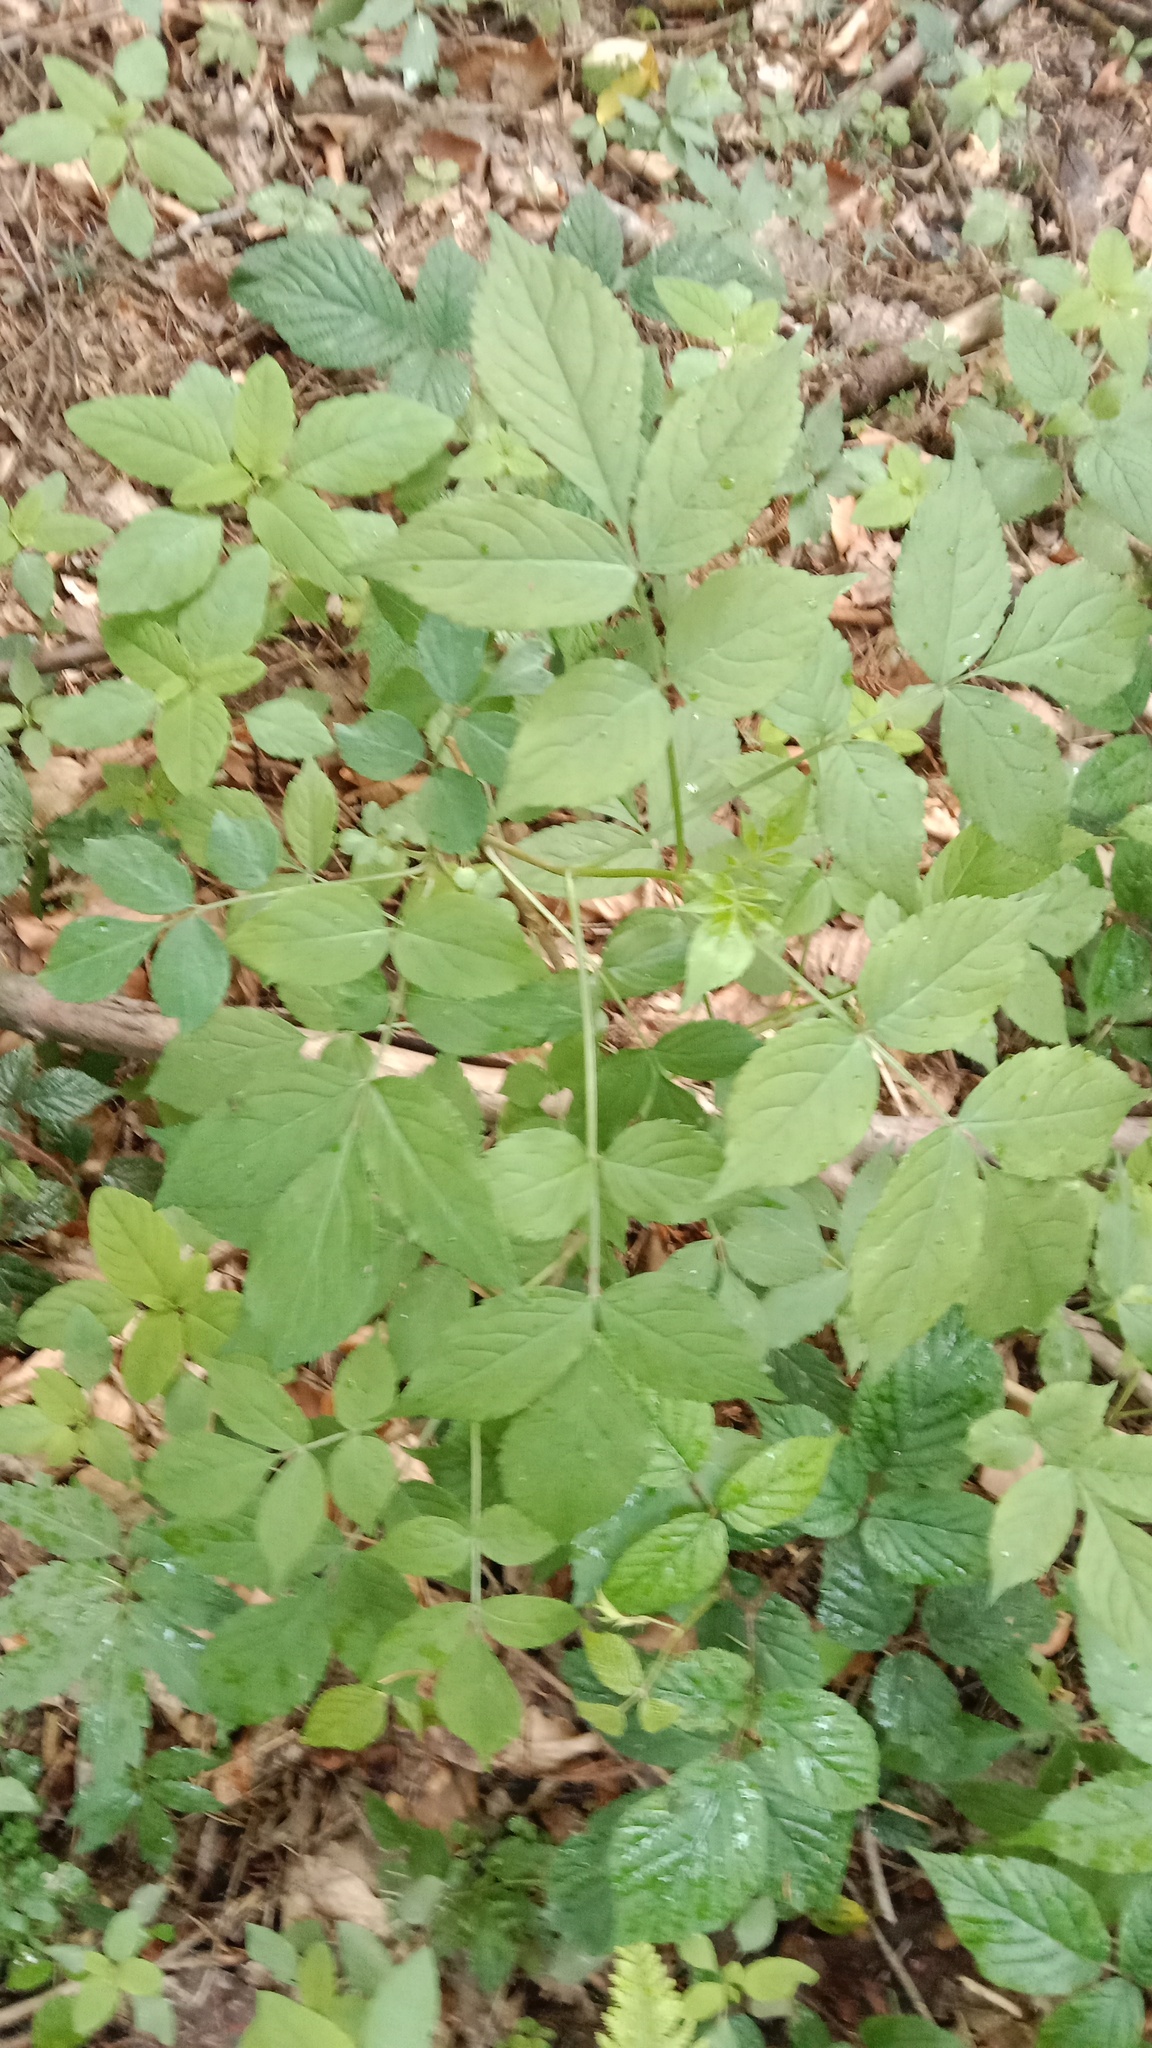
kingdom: Plantae
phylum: Tracheophyta
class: Magnoliopsida
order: Dipsacales
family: Viburnaceae
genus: Sambucus
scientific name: Sambucus nigra
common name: Elder
